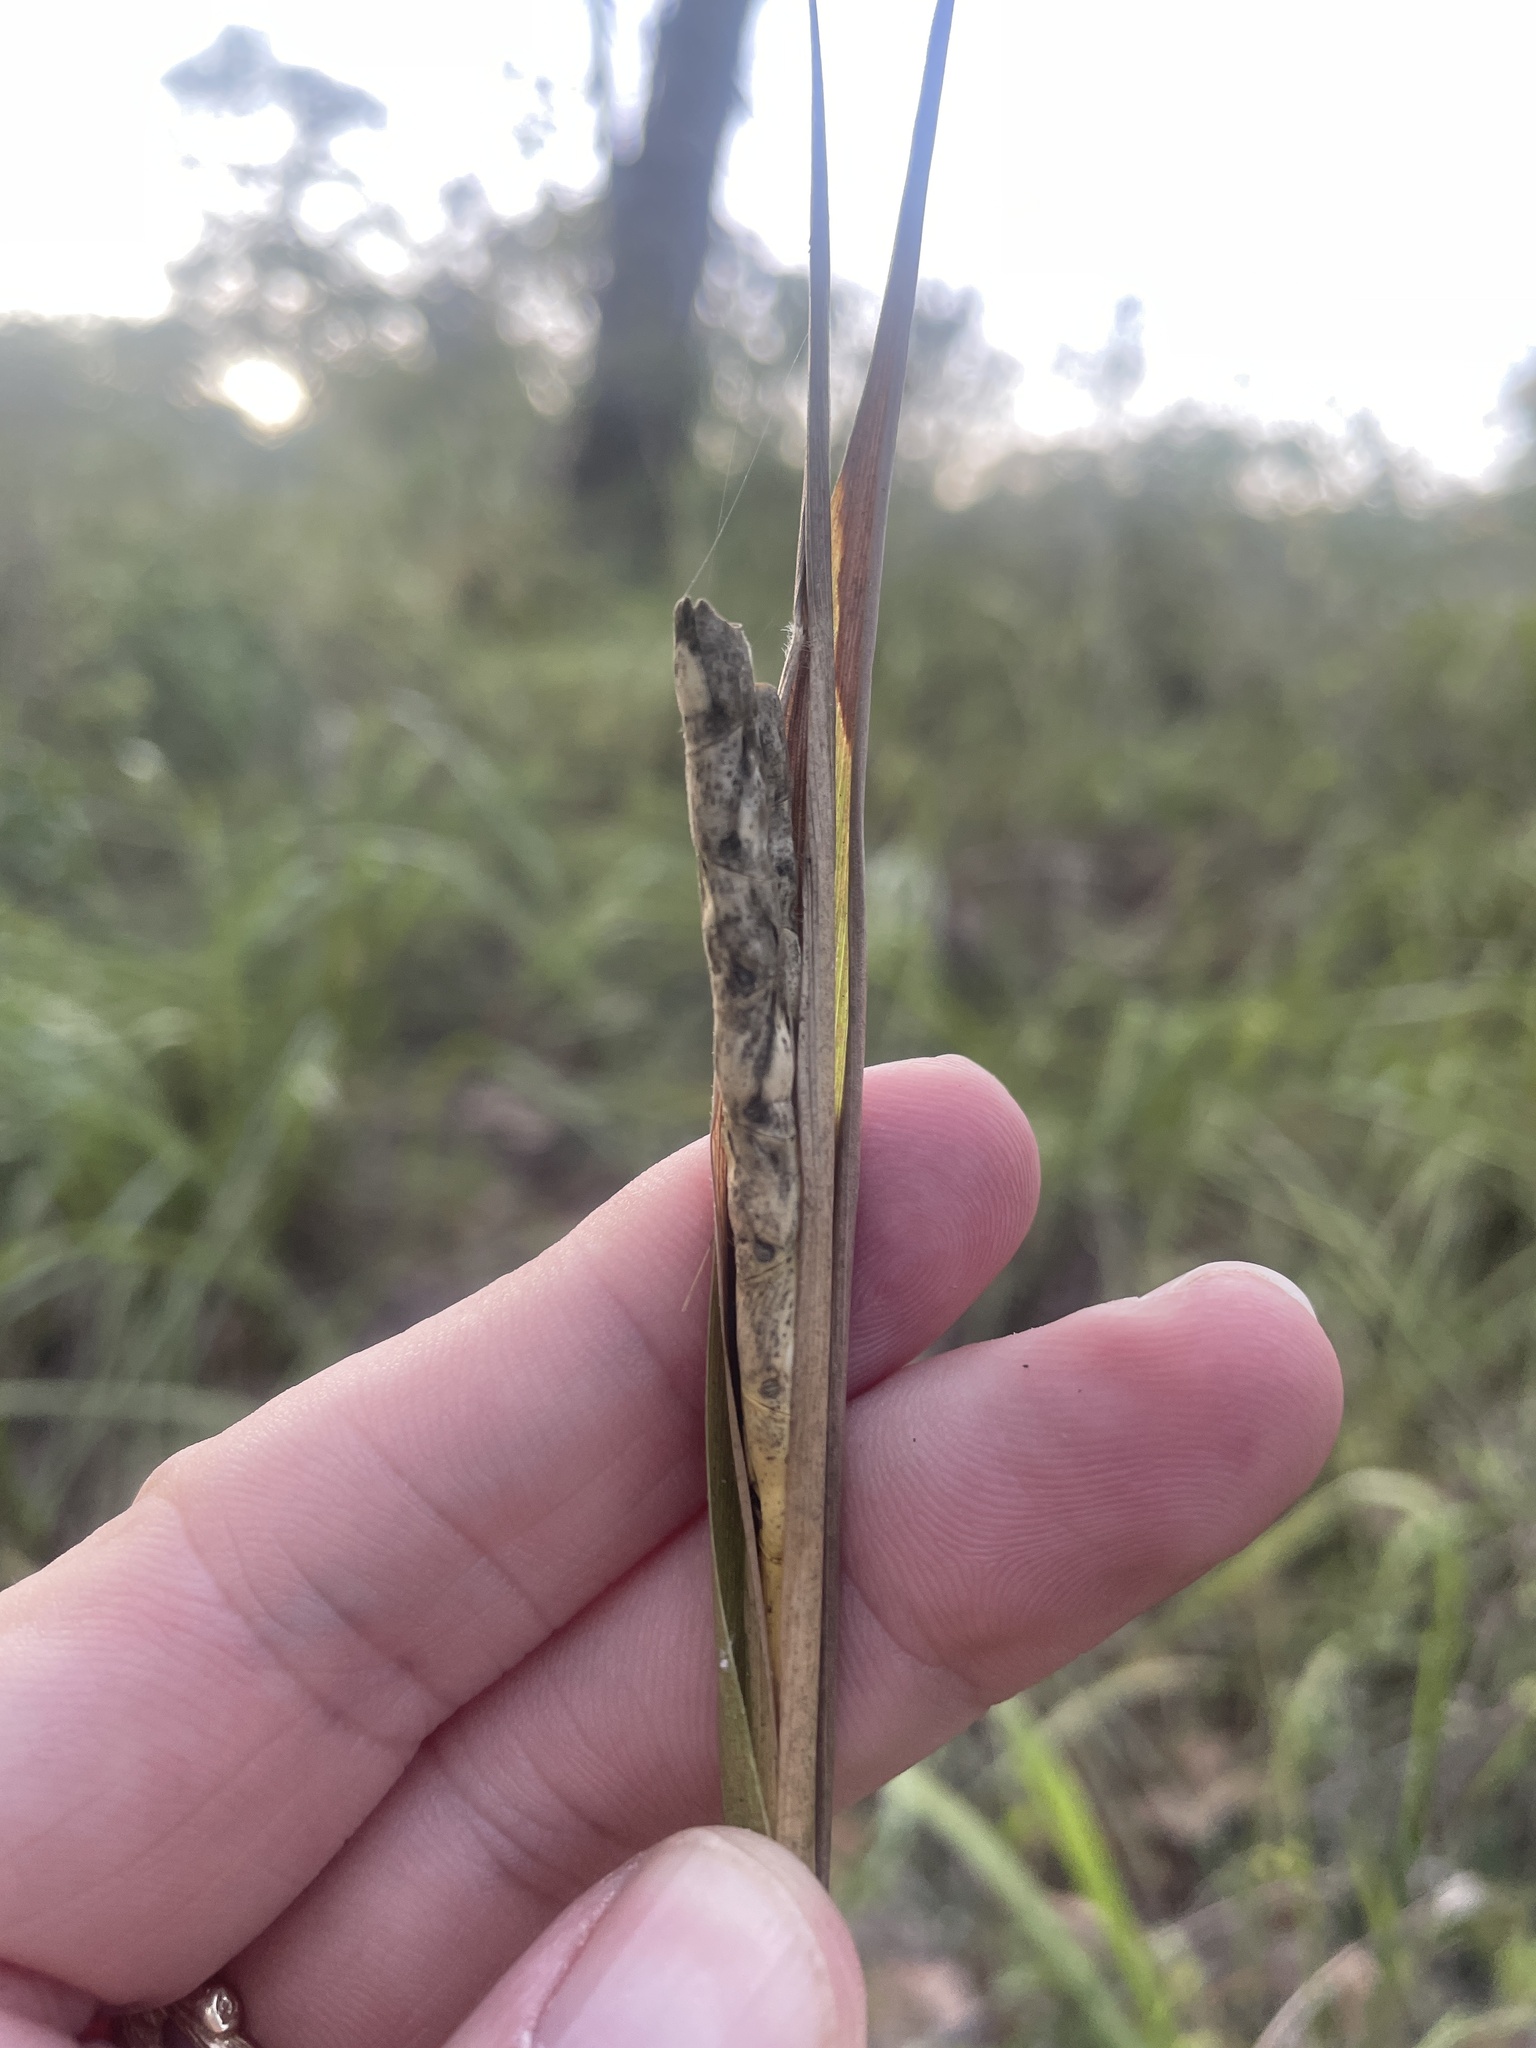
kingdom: Plantae
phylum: Tracheophyta
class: Liliopsida
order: Poales
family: Poaceae
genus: Tripsacum
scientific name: Tripsacum dactyloides
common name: Buffalo-grass
